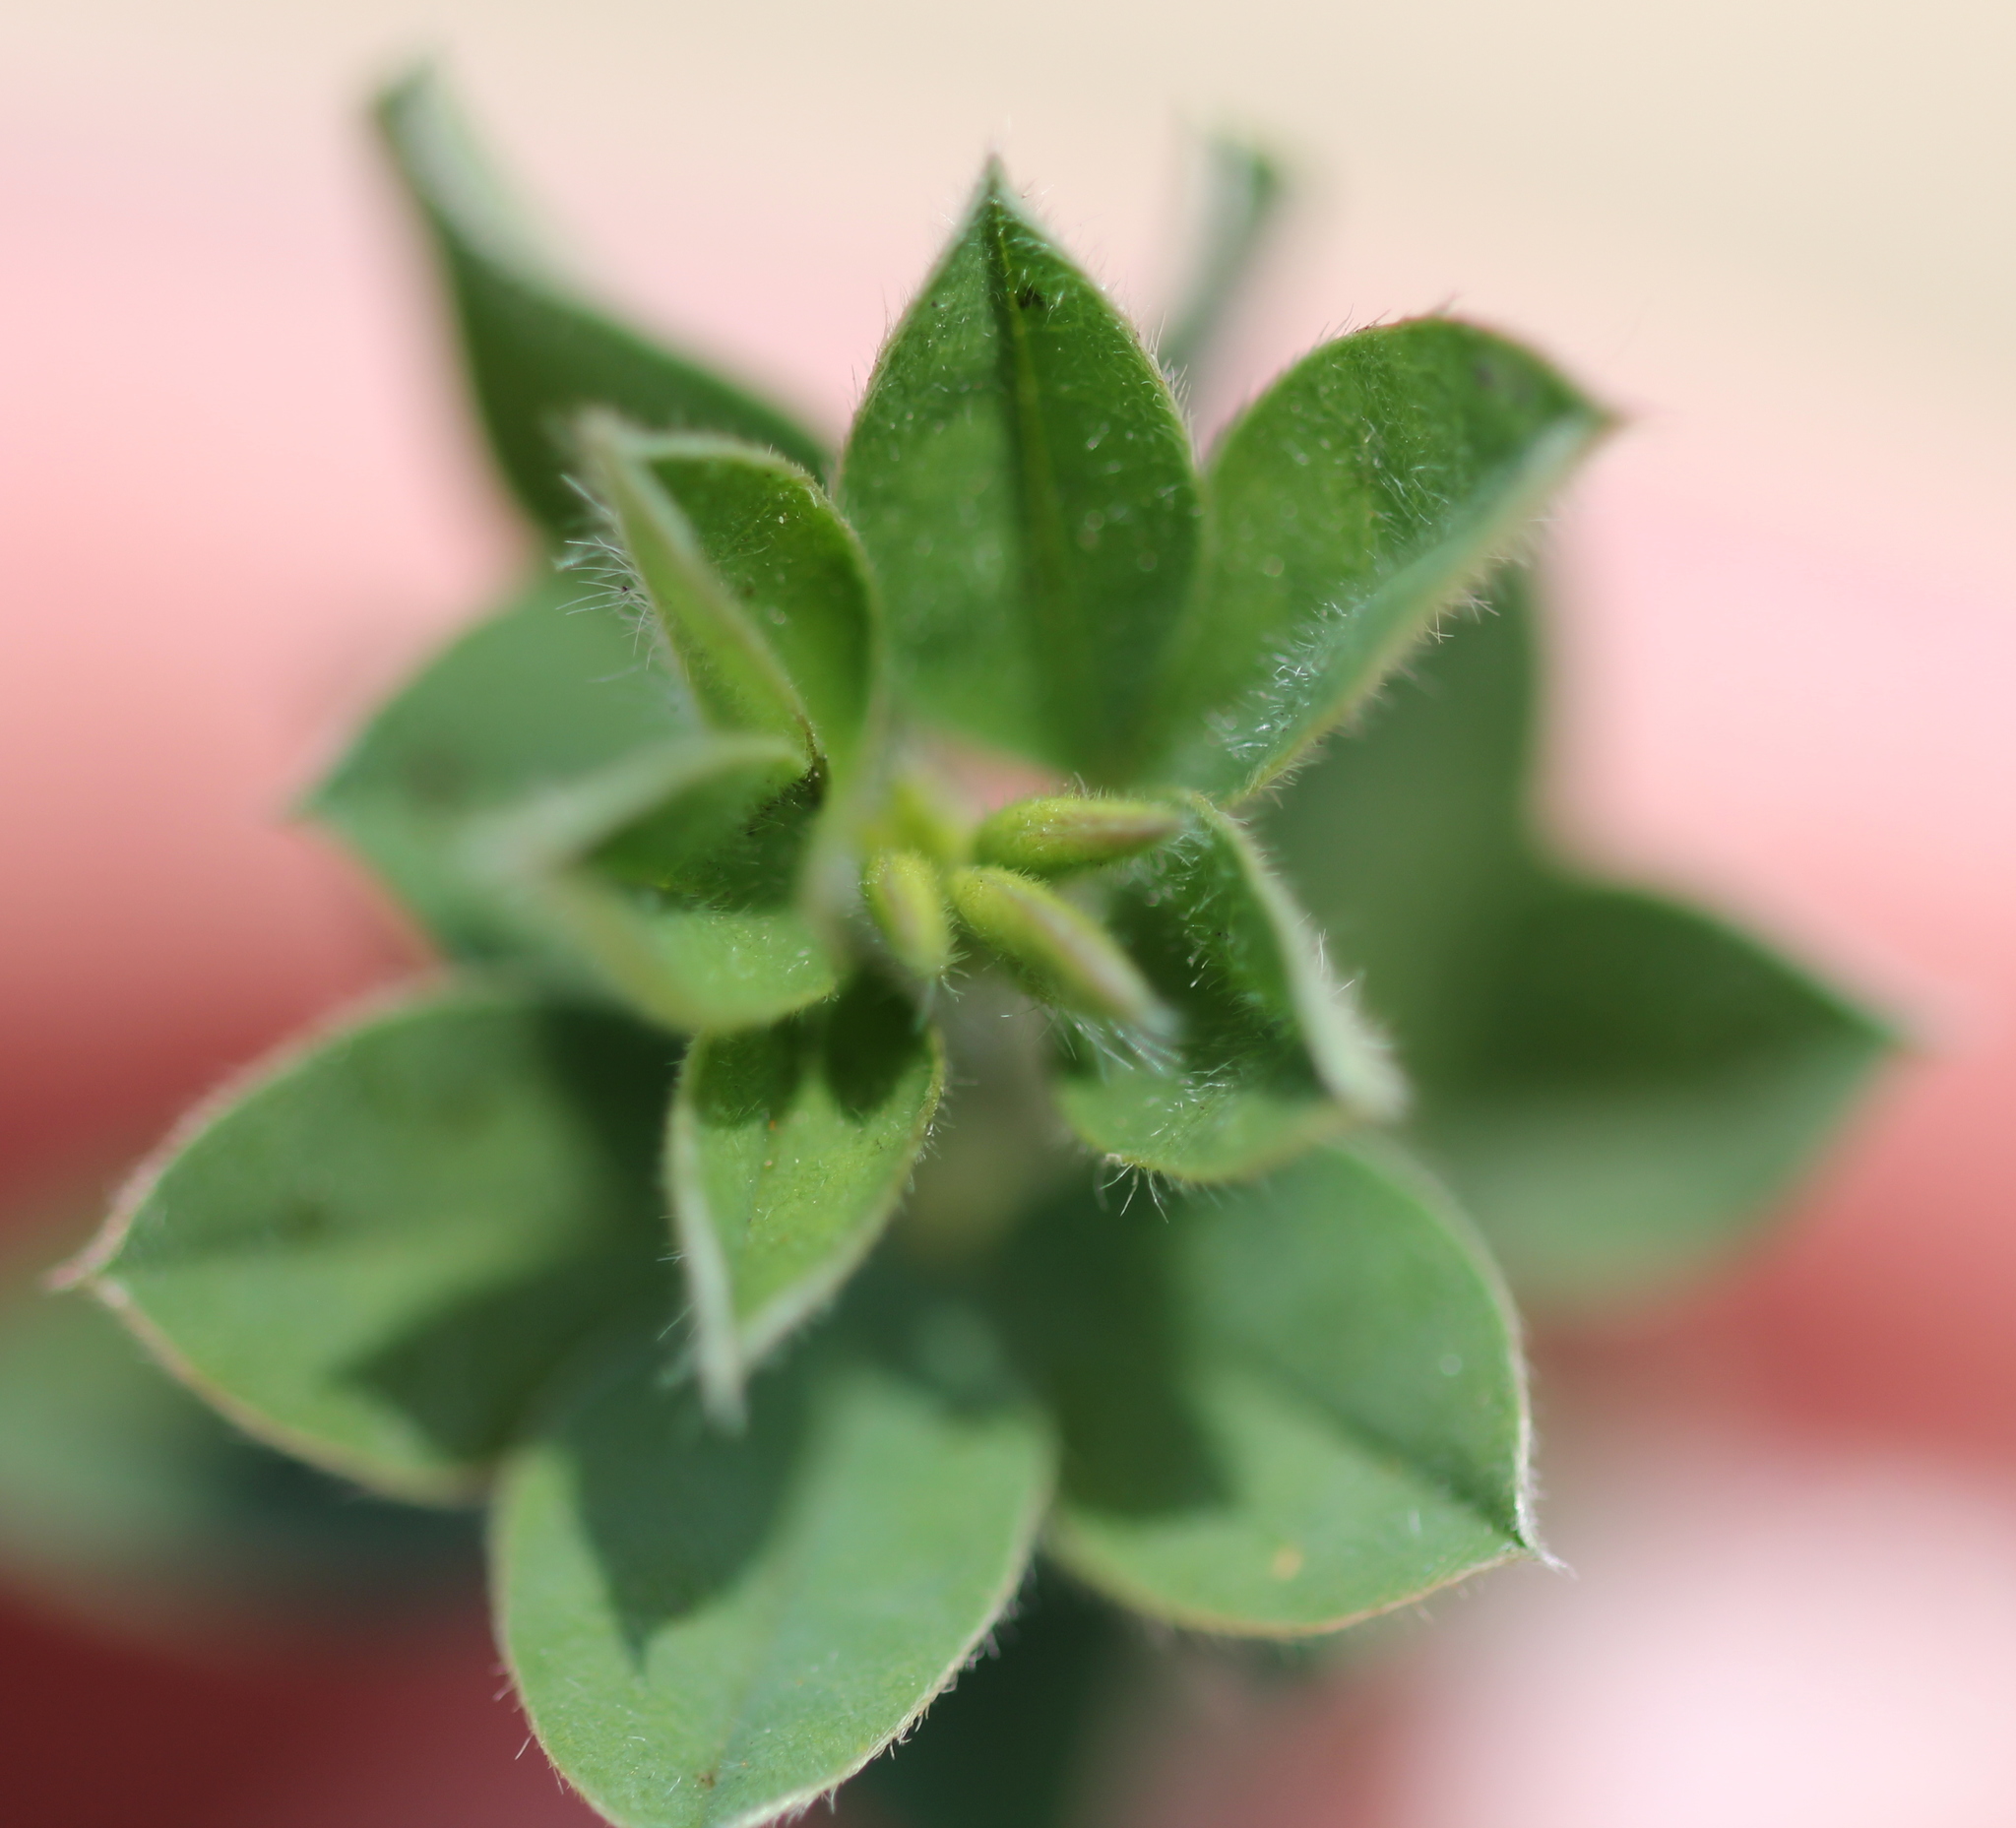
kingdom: Plantae
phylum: Tracheophyta
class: Magnoliopsida
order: Fabales
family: Fabaceae
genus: Genista
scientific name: Genista monspessulana
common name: Montpellier broom
